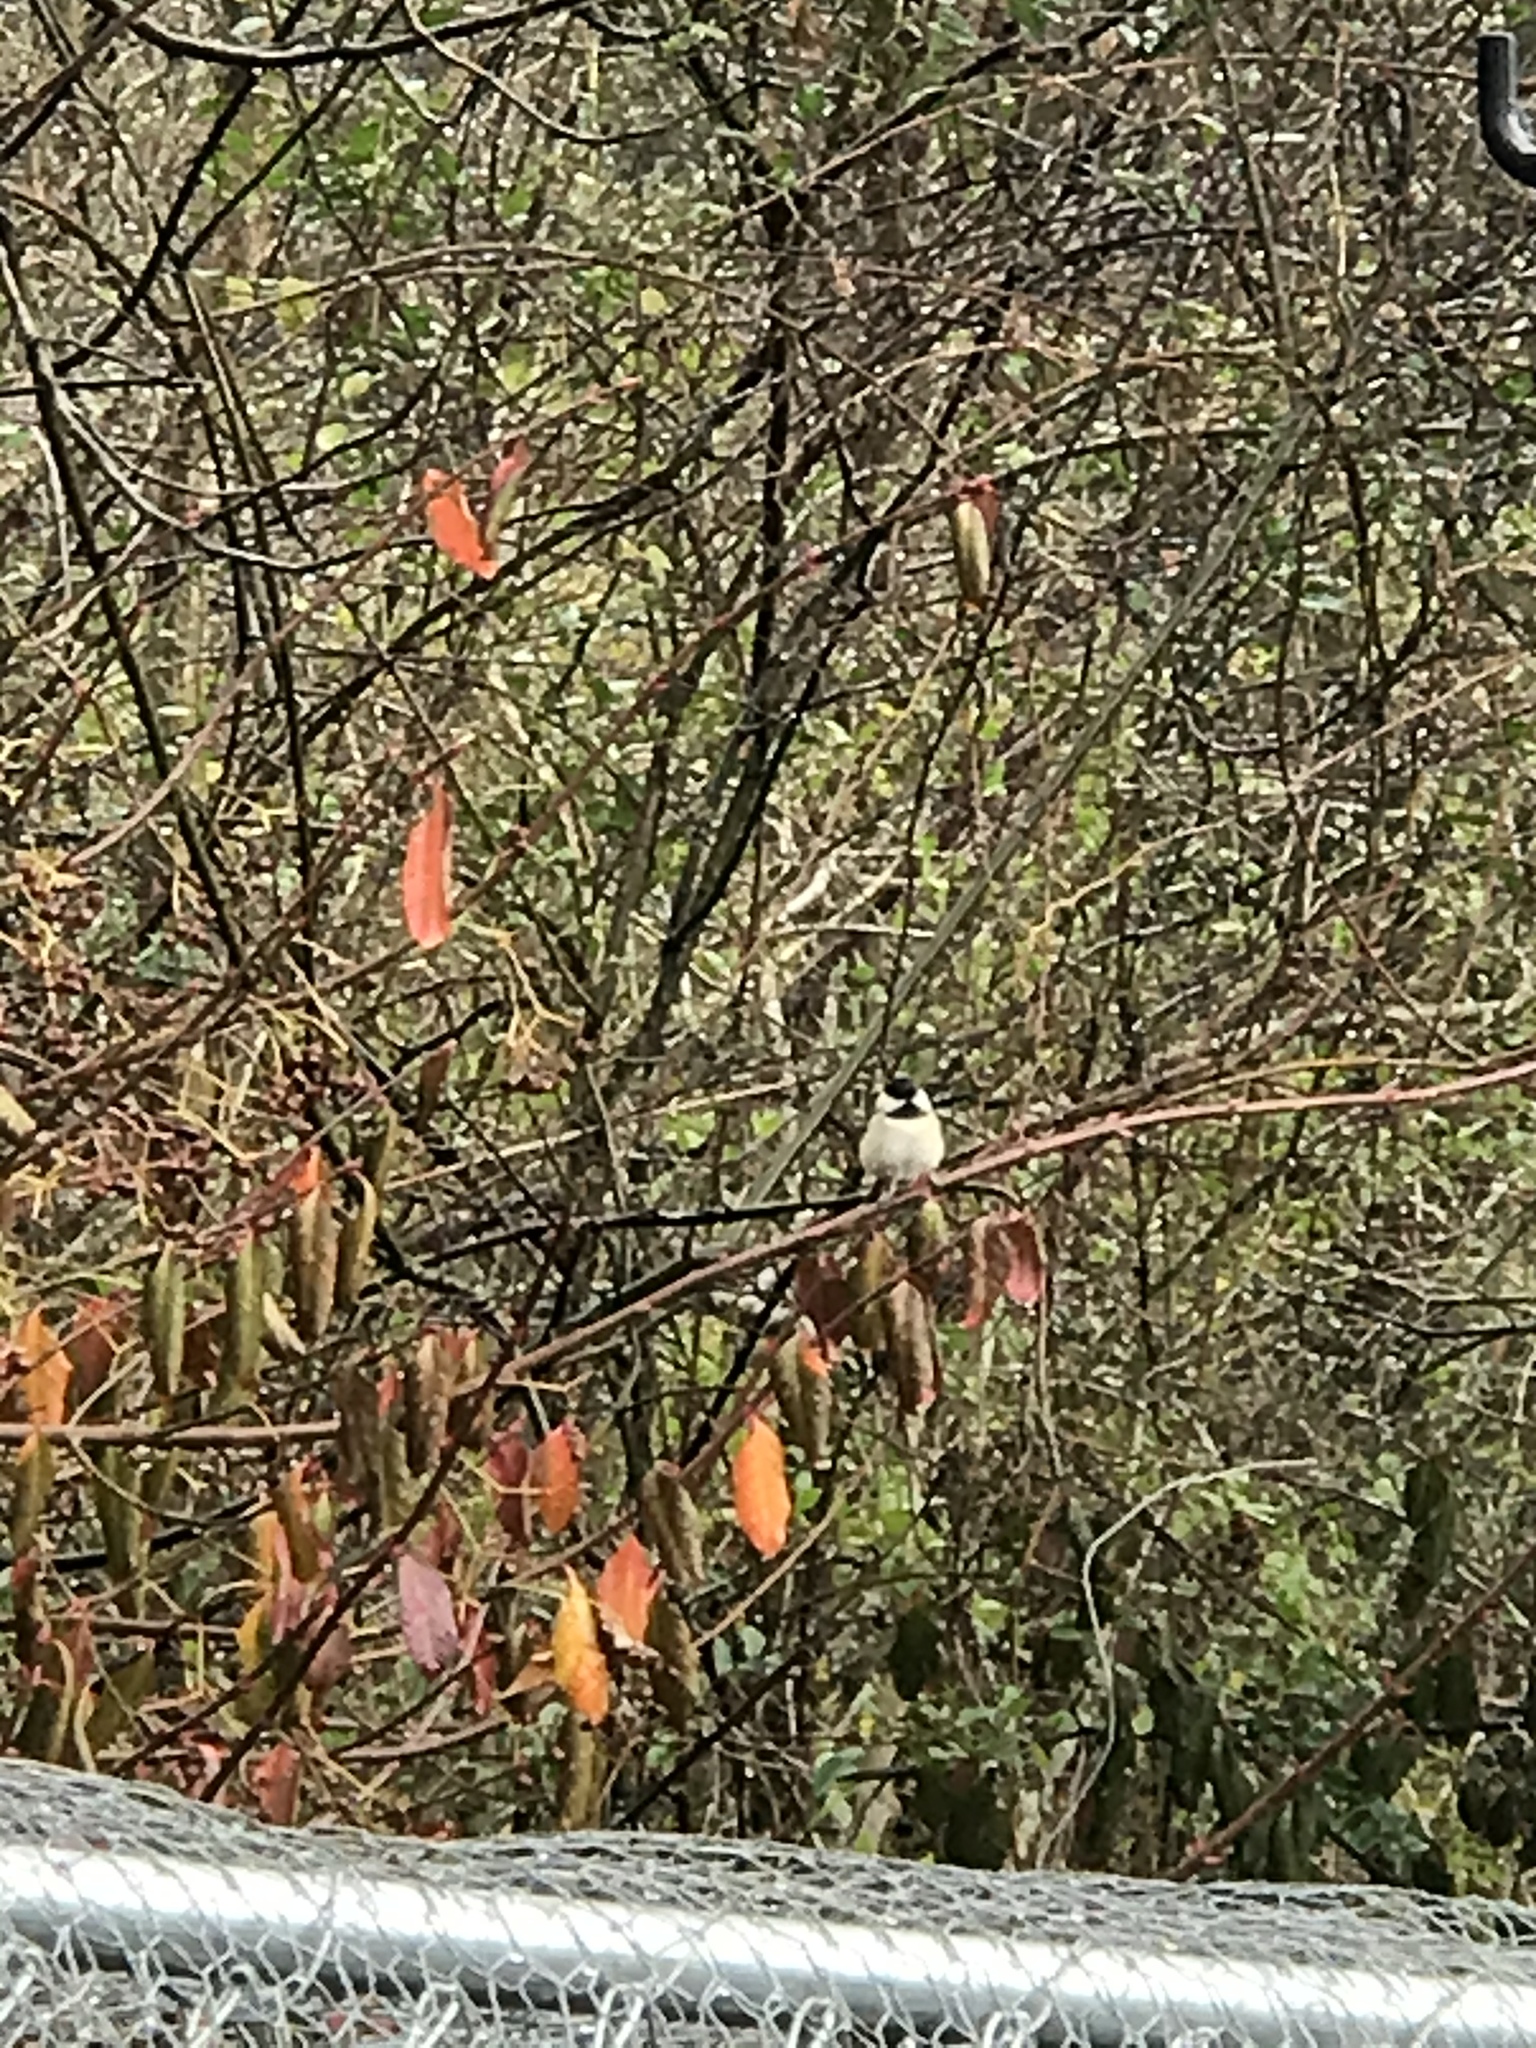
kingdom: Animalia
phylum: Chordata
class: Aves
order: Passeriformes
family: Paridae
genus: Poecile
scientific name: Poecile carolinensis
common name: Carolina chickadee
